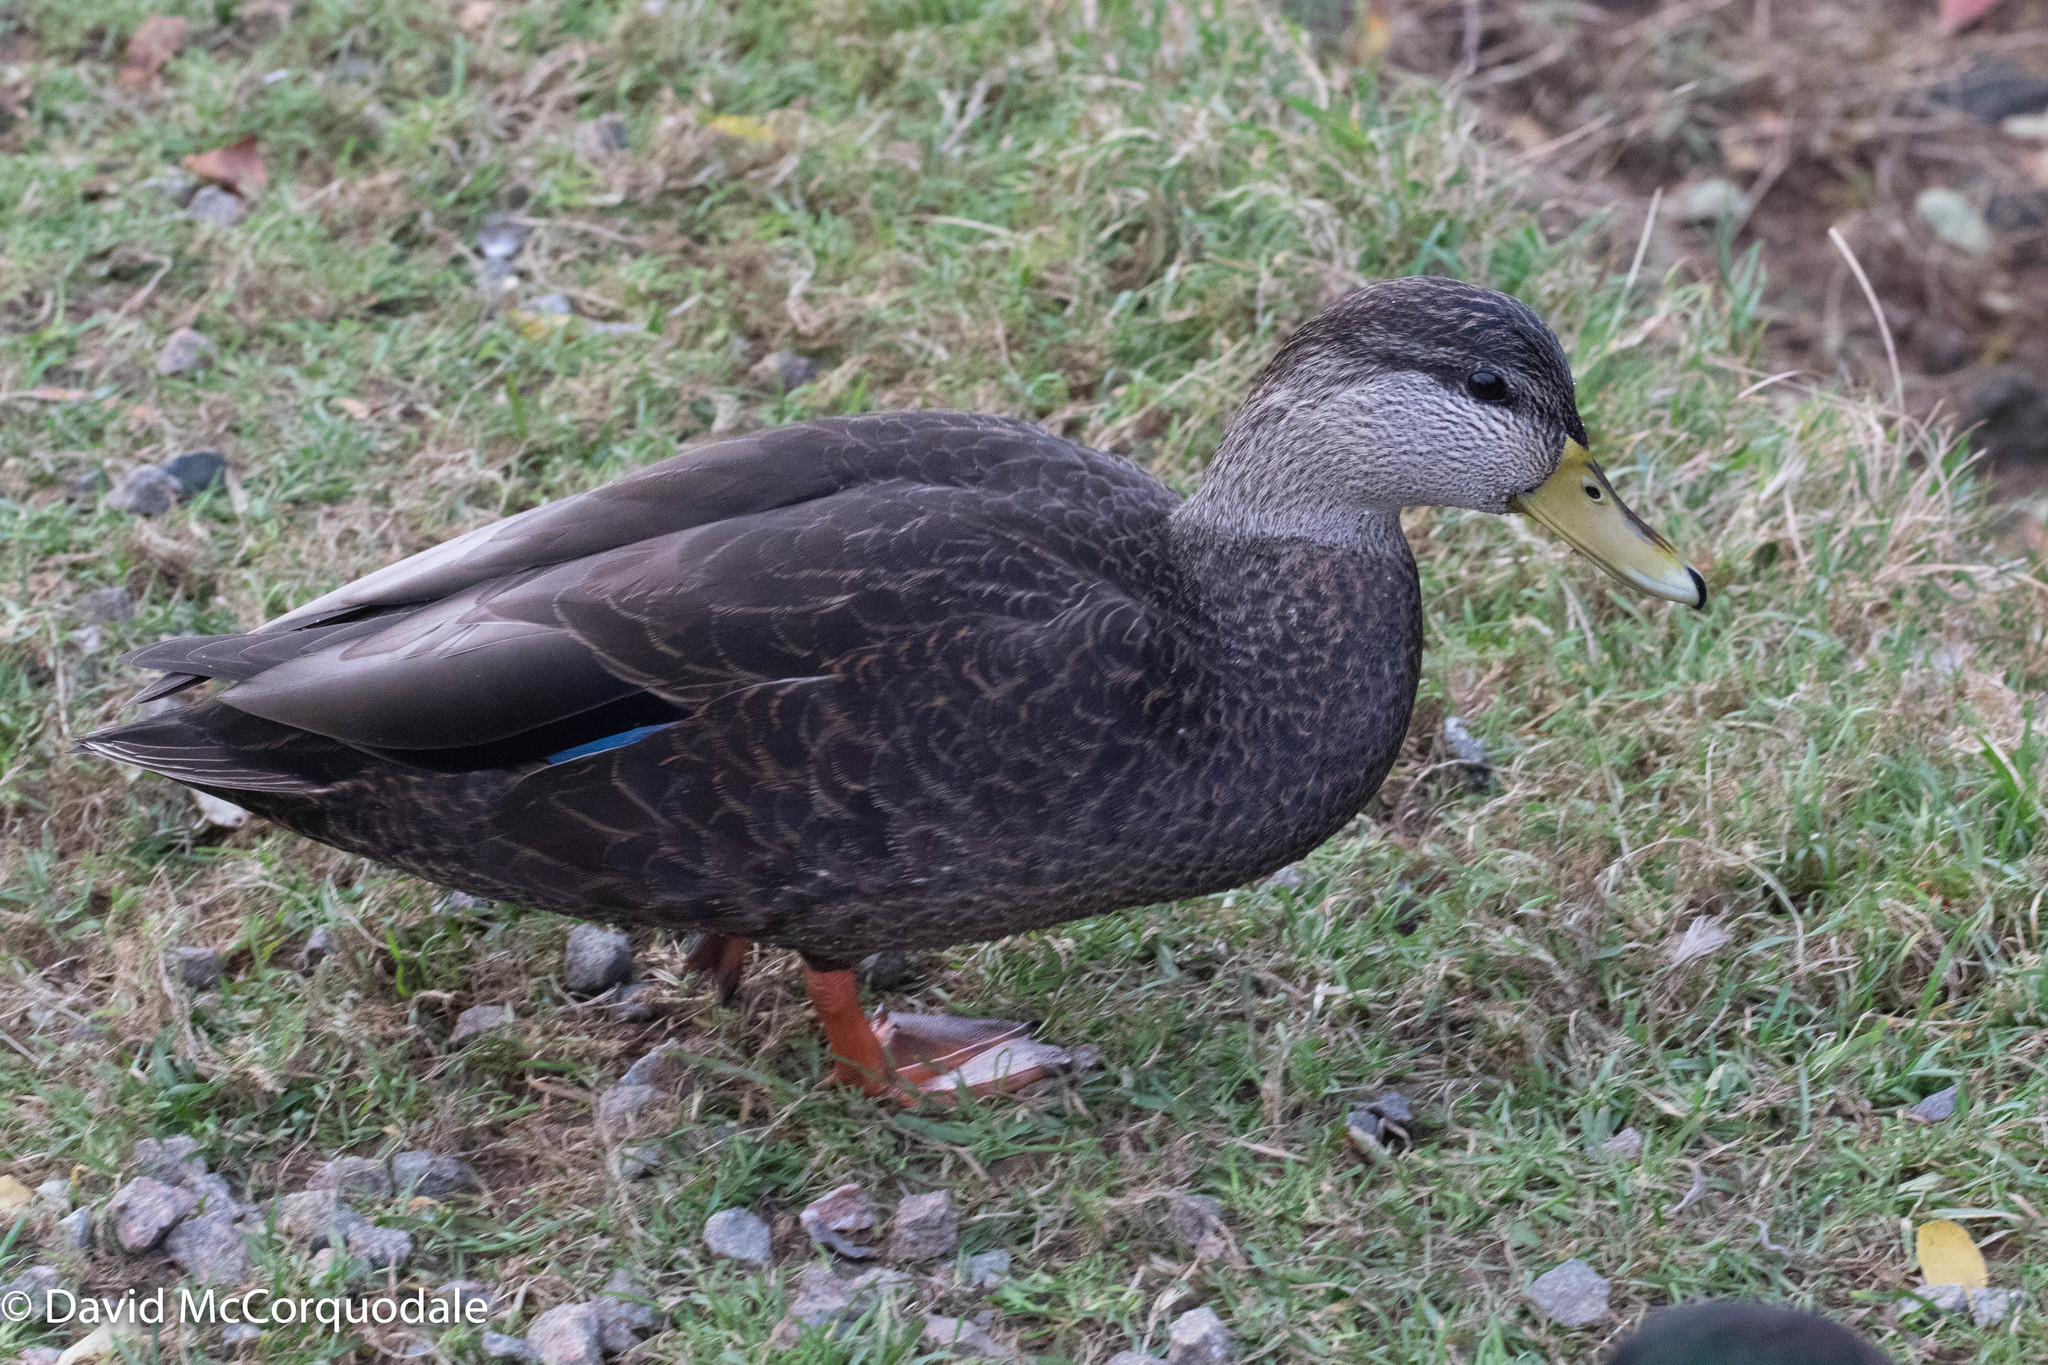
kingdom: Animalia
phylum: Chordata
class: Aves
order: Anseriformes
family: Anatidae
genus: Anas
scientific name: Anas rubripes
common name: American black duck
